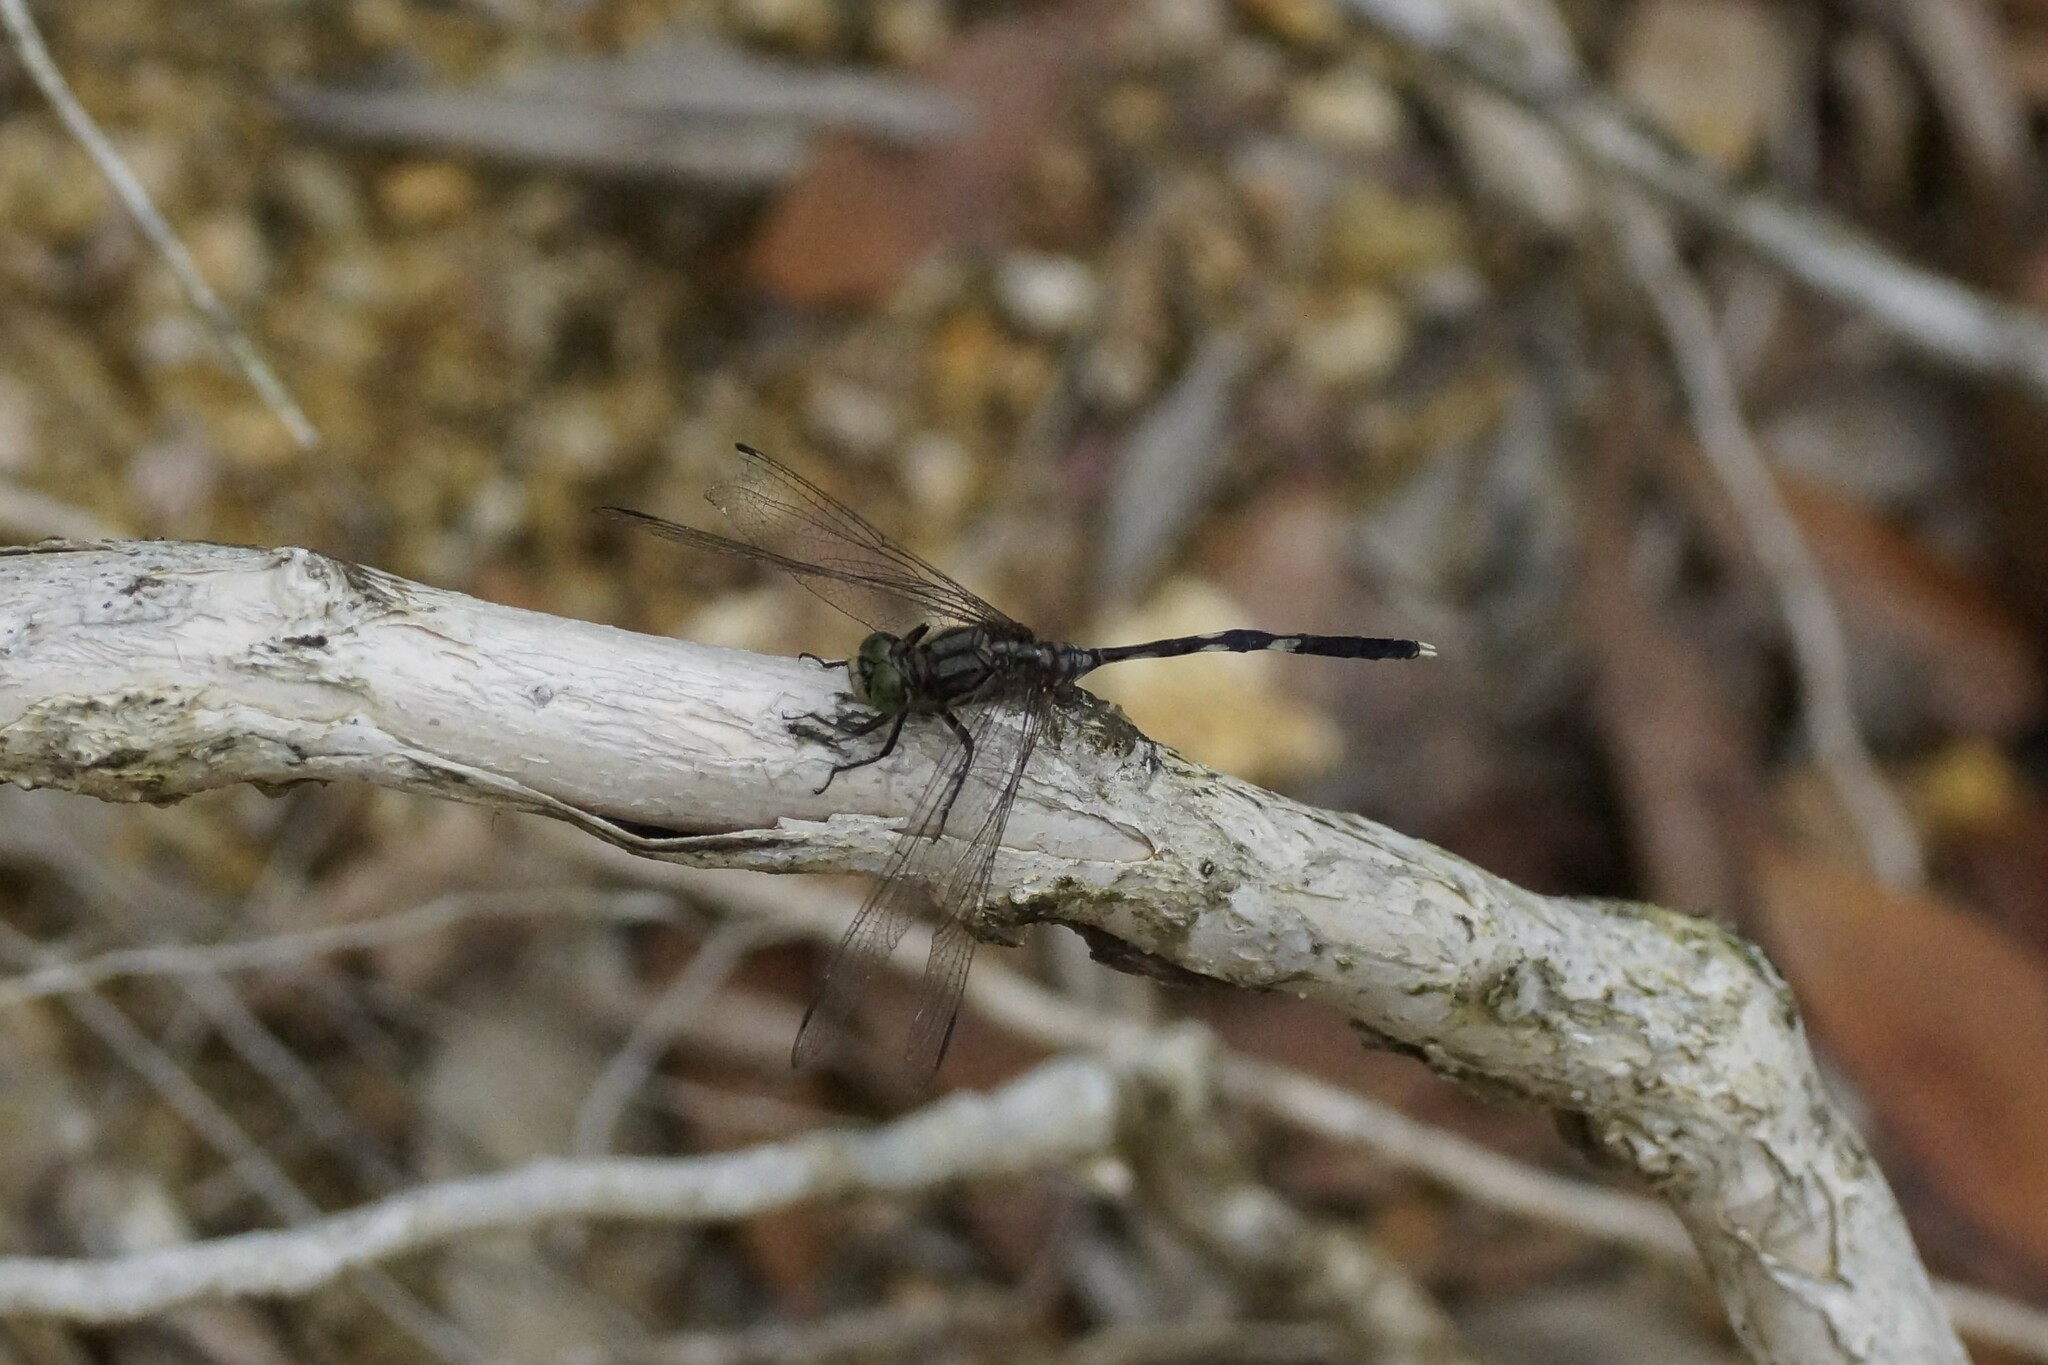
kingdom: Animalia
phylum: Arthropoda
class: Insecta
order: Odonata
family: Libellulidae
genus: Orthetrum
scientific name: Orthetrum sabina
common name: Slender skimmer
